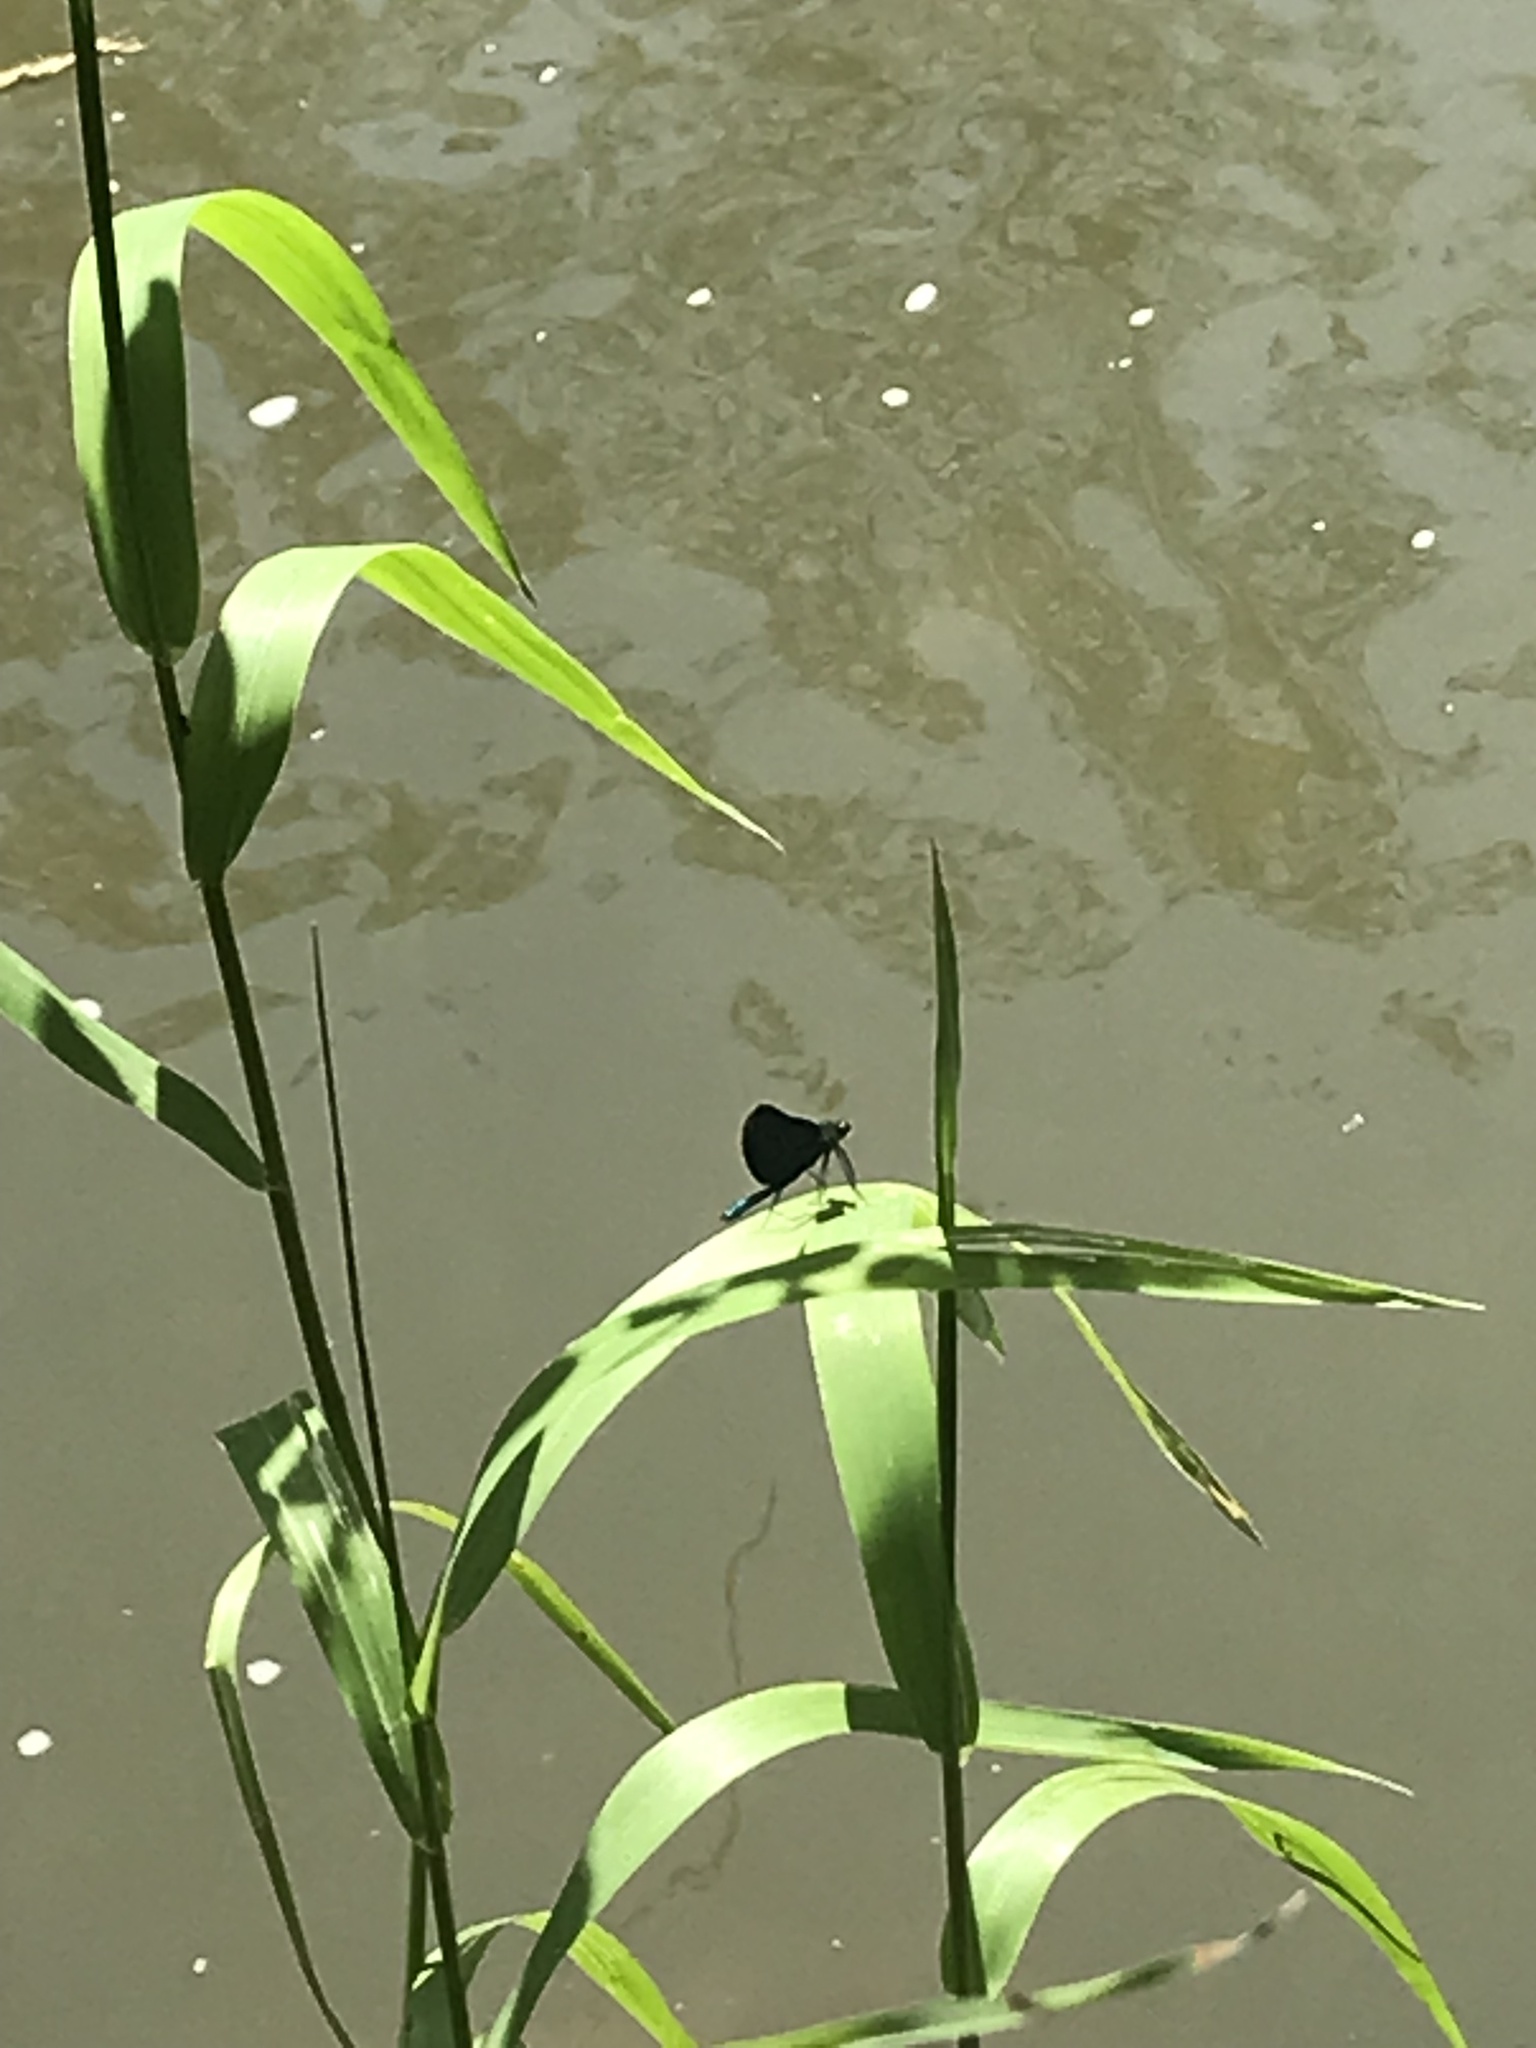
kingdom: Animalia
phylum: Arthropoda
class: Insecta
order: Odonata
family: Calopterygidae
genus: Calopteryx
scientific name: Calopteryx virgo
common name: Beautiful demoiselle
